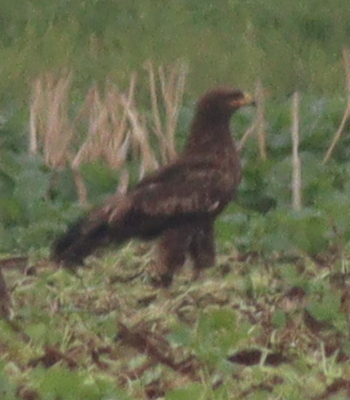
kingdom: Animalia
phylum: Chordata
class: Aves
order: Accipitriformes
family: Accipitridae
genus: Aquila
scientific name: Aquila pomarina
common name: Lesser spotted eagle
